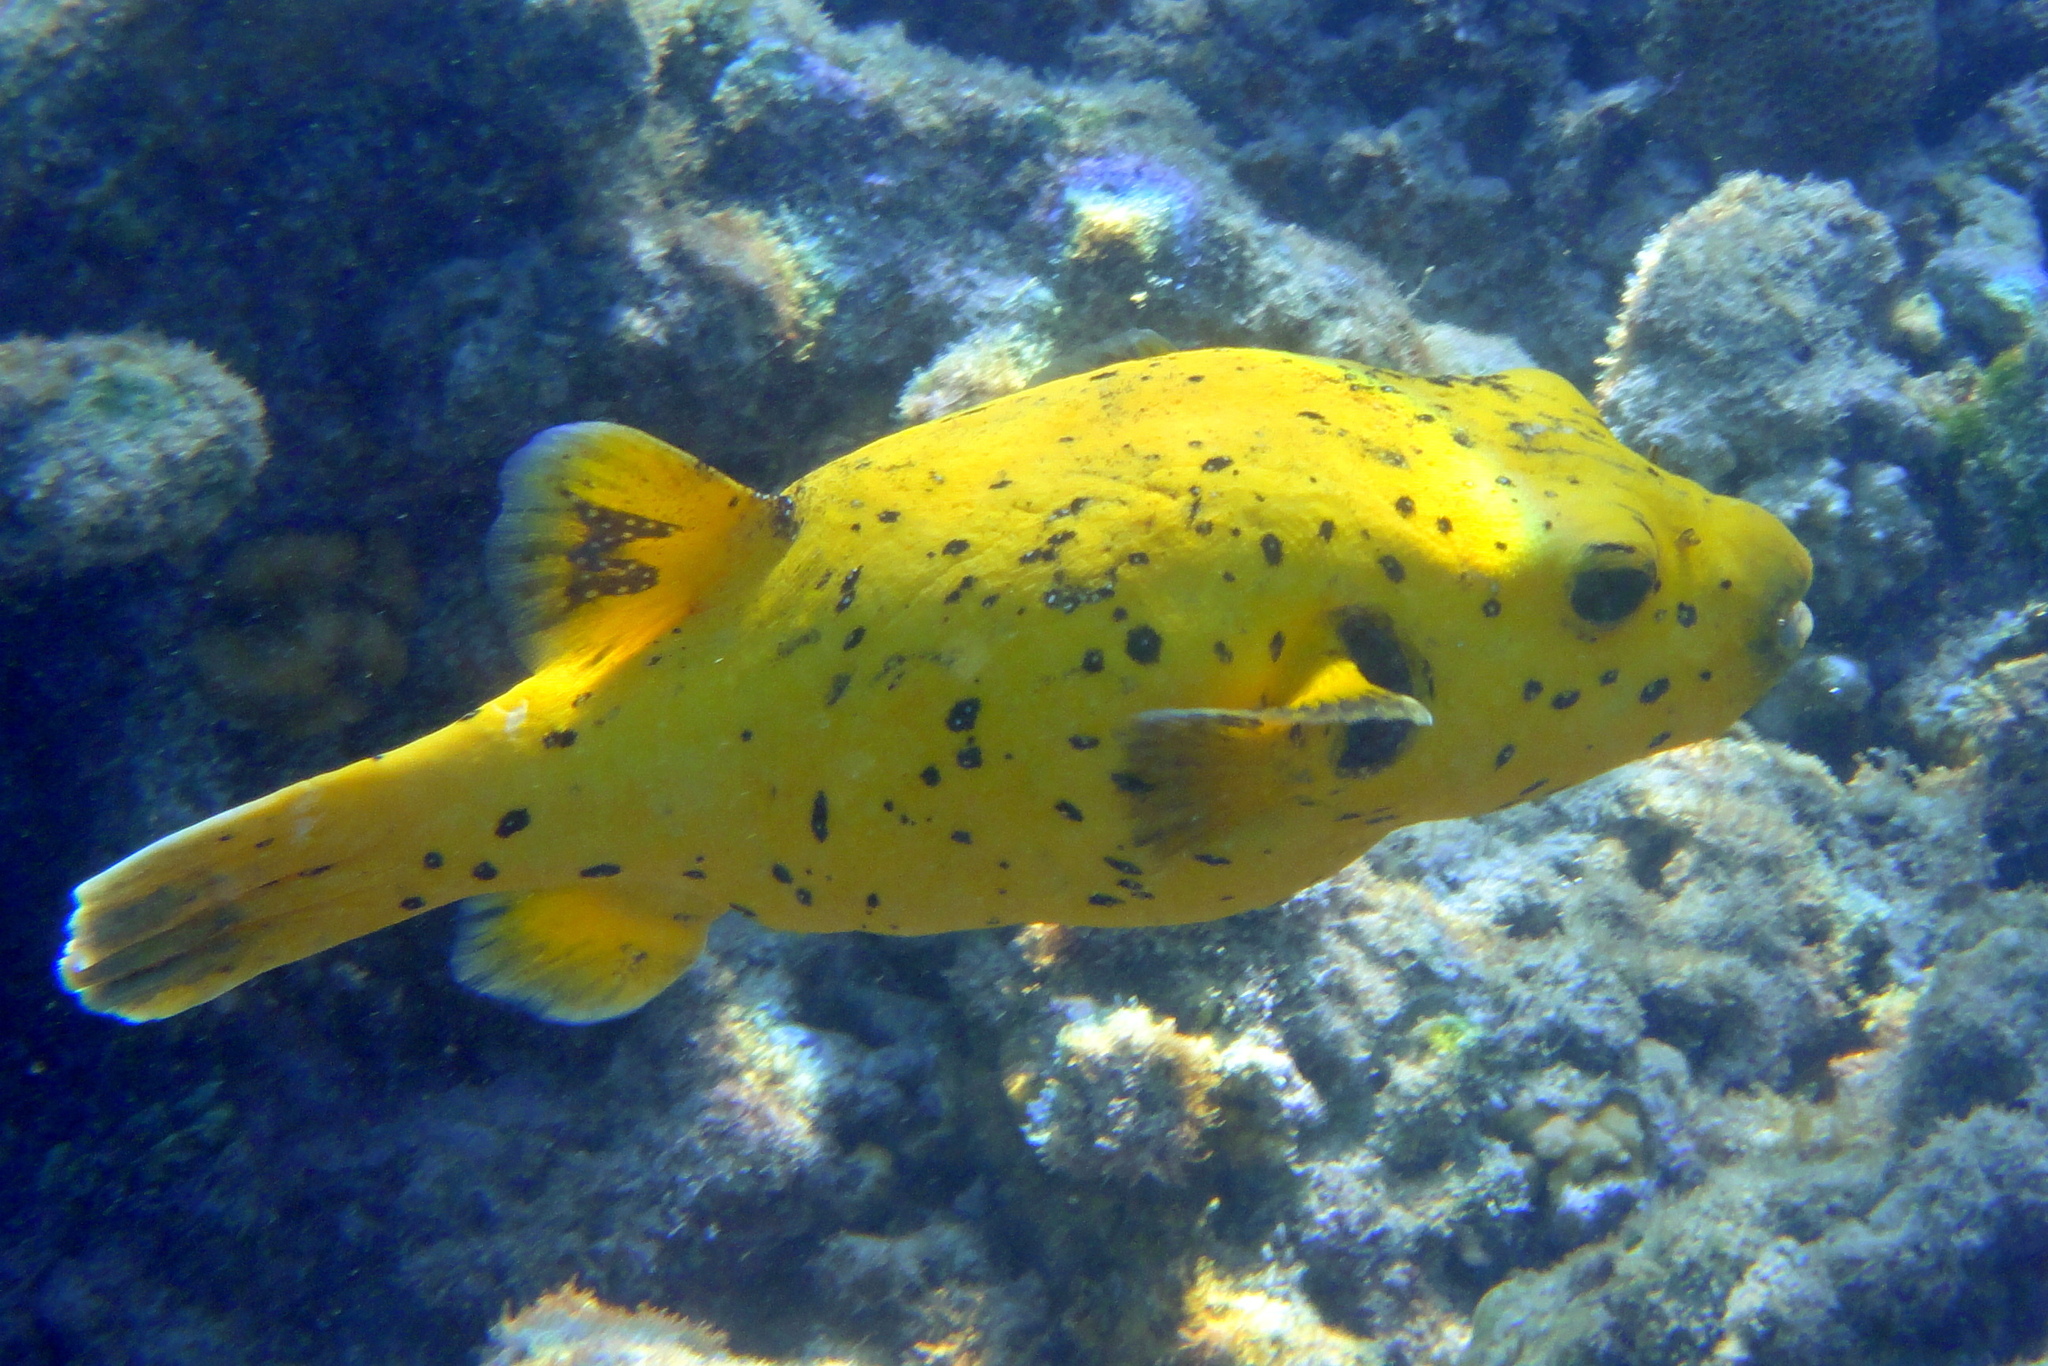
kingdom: Animalia
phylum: Chordata
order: Tetraodontiformes
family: Tetraodontidae
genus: Arothron
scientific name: Arothron meleagris
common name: Guinea-fowl pufferfish
